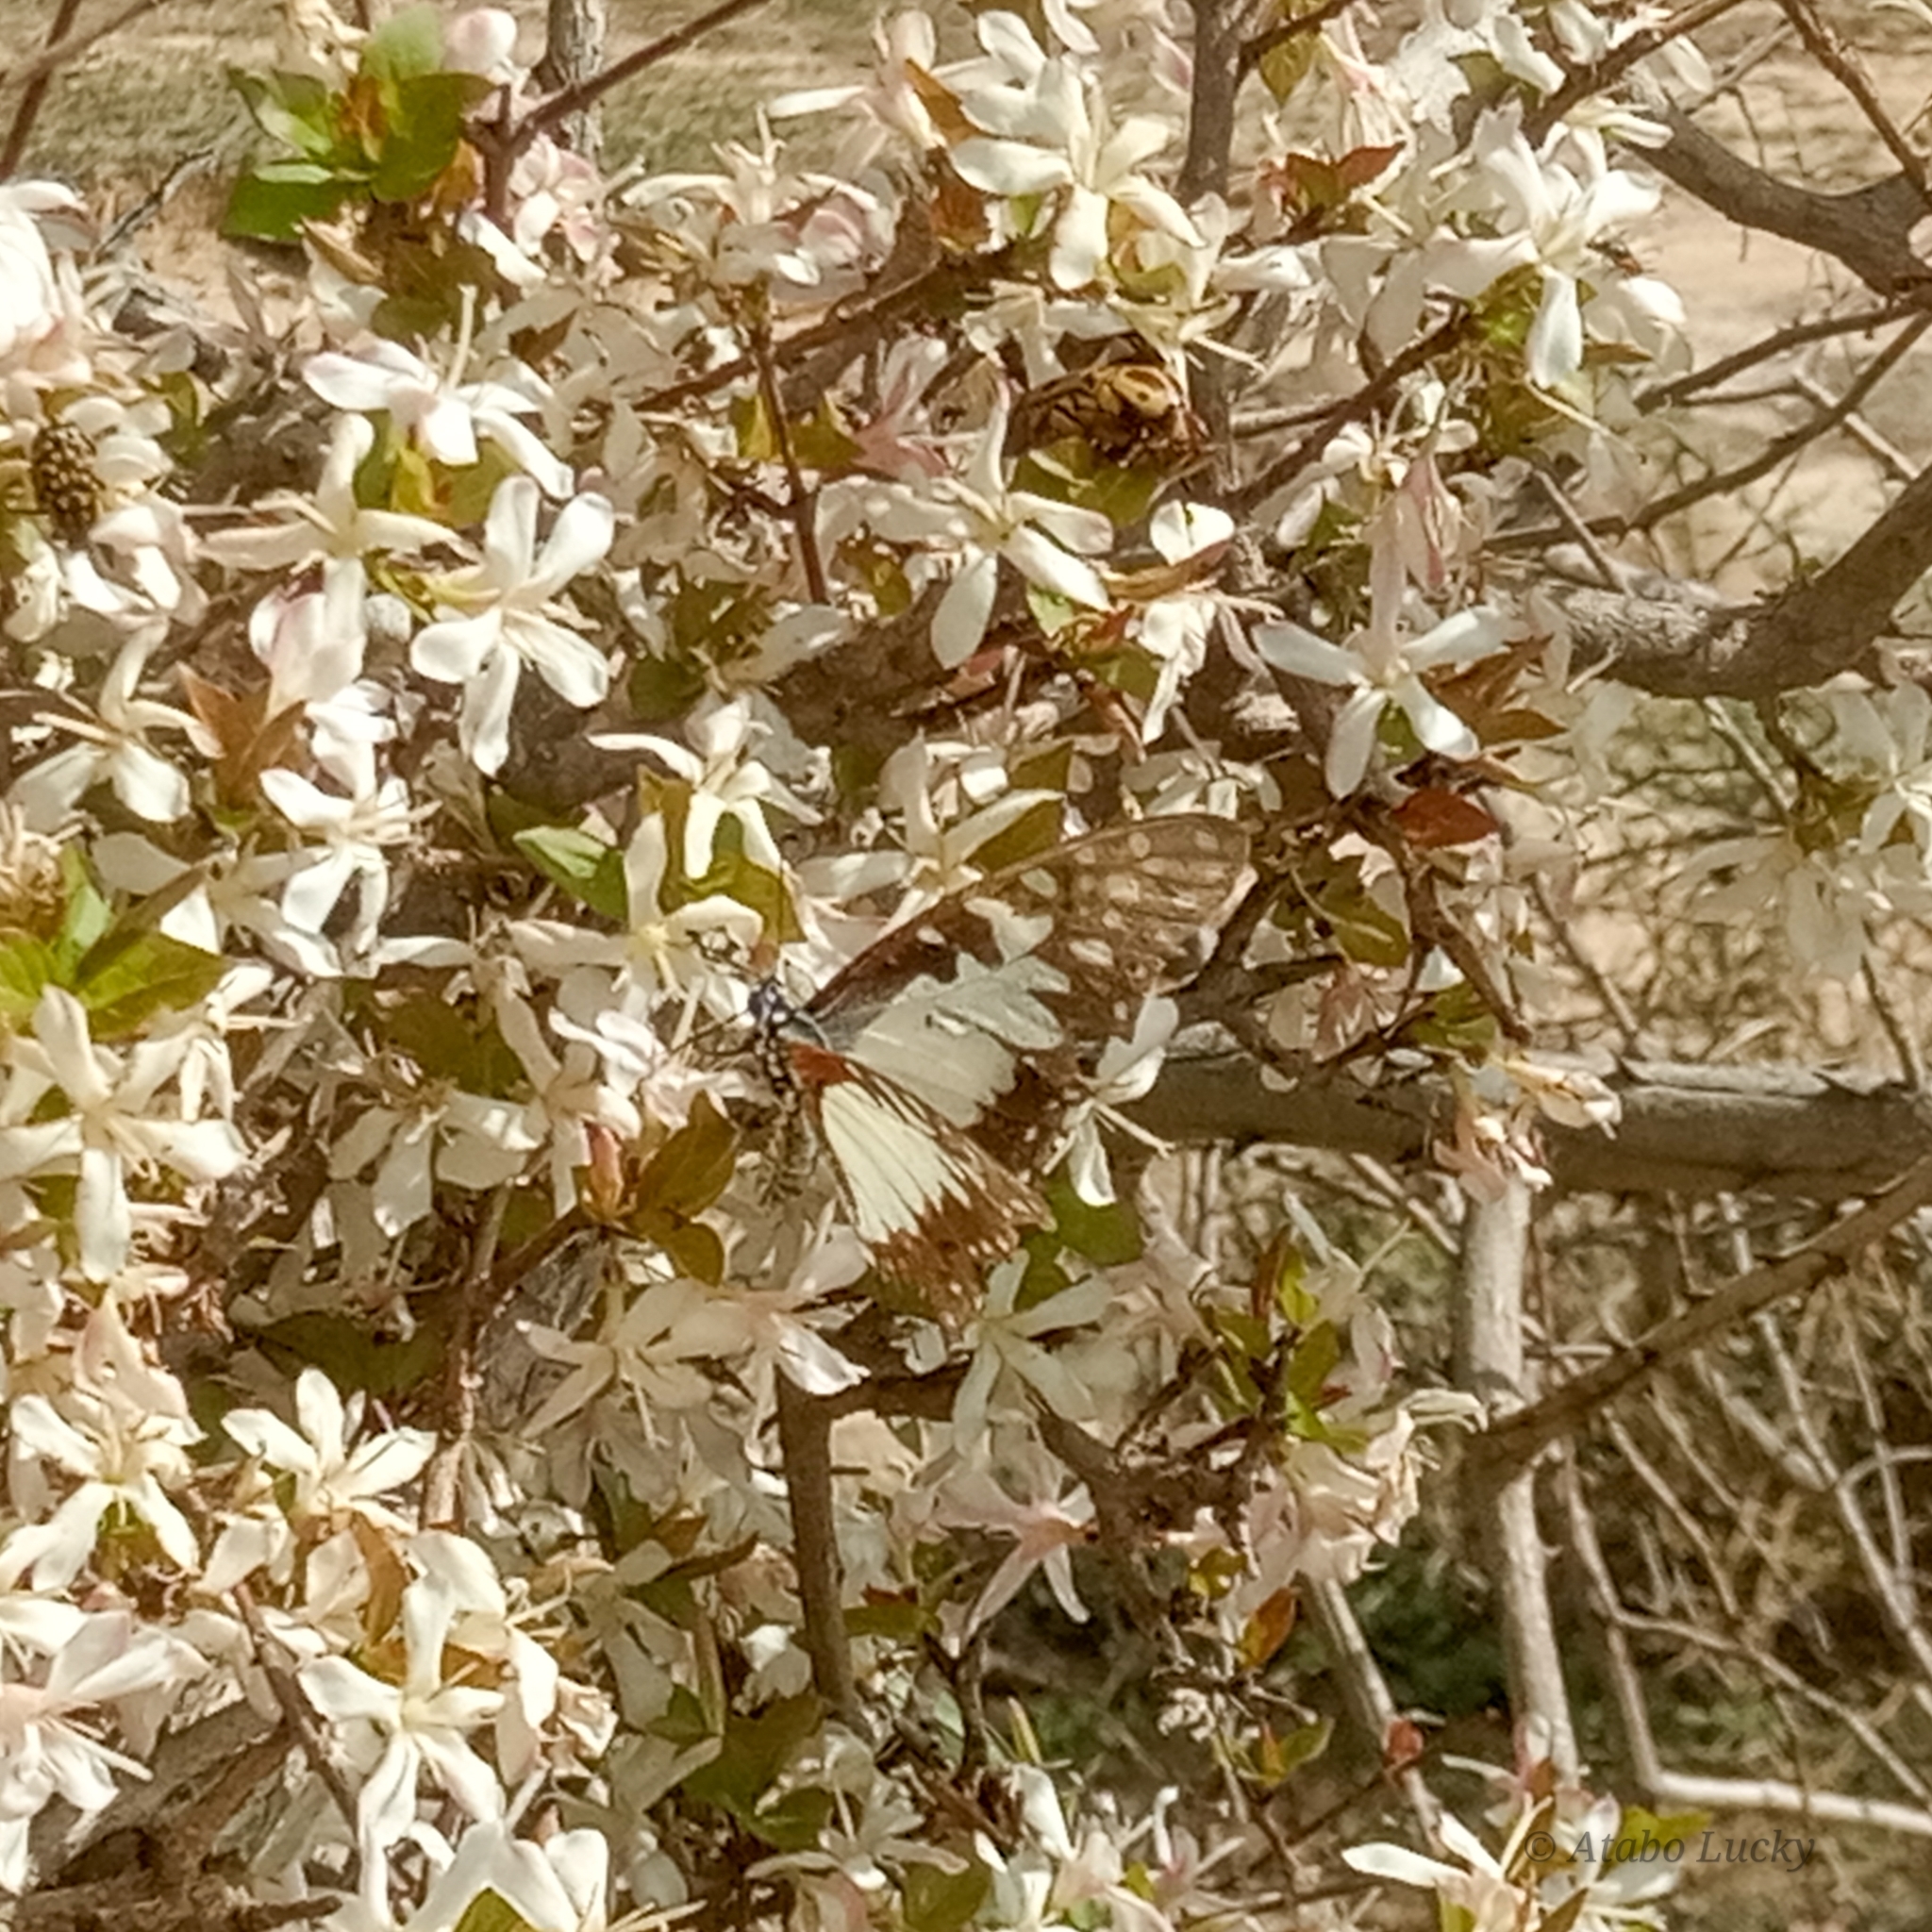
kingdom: Animalia
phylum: Arthropoda
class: Insecta
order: Lepidoptera
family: Papilionidae
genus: Graphium
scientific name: Graphium angolanus
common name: Angola white-lady swordtail
